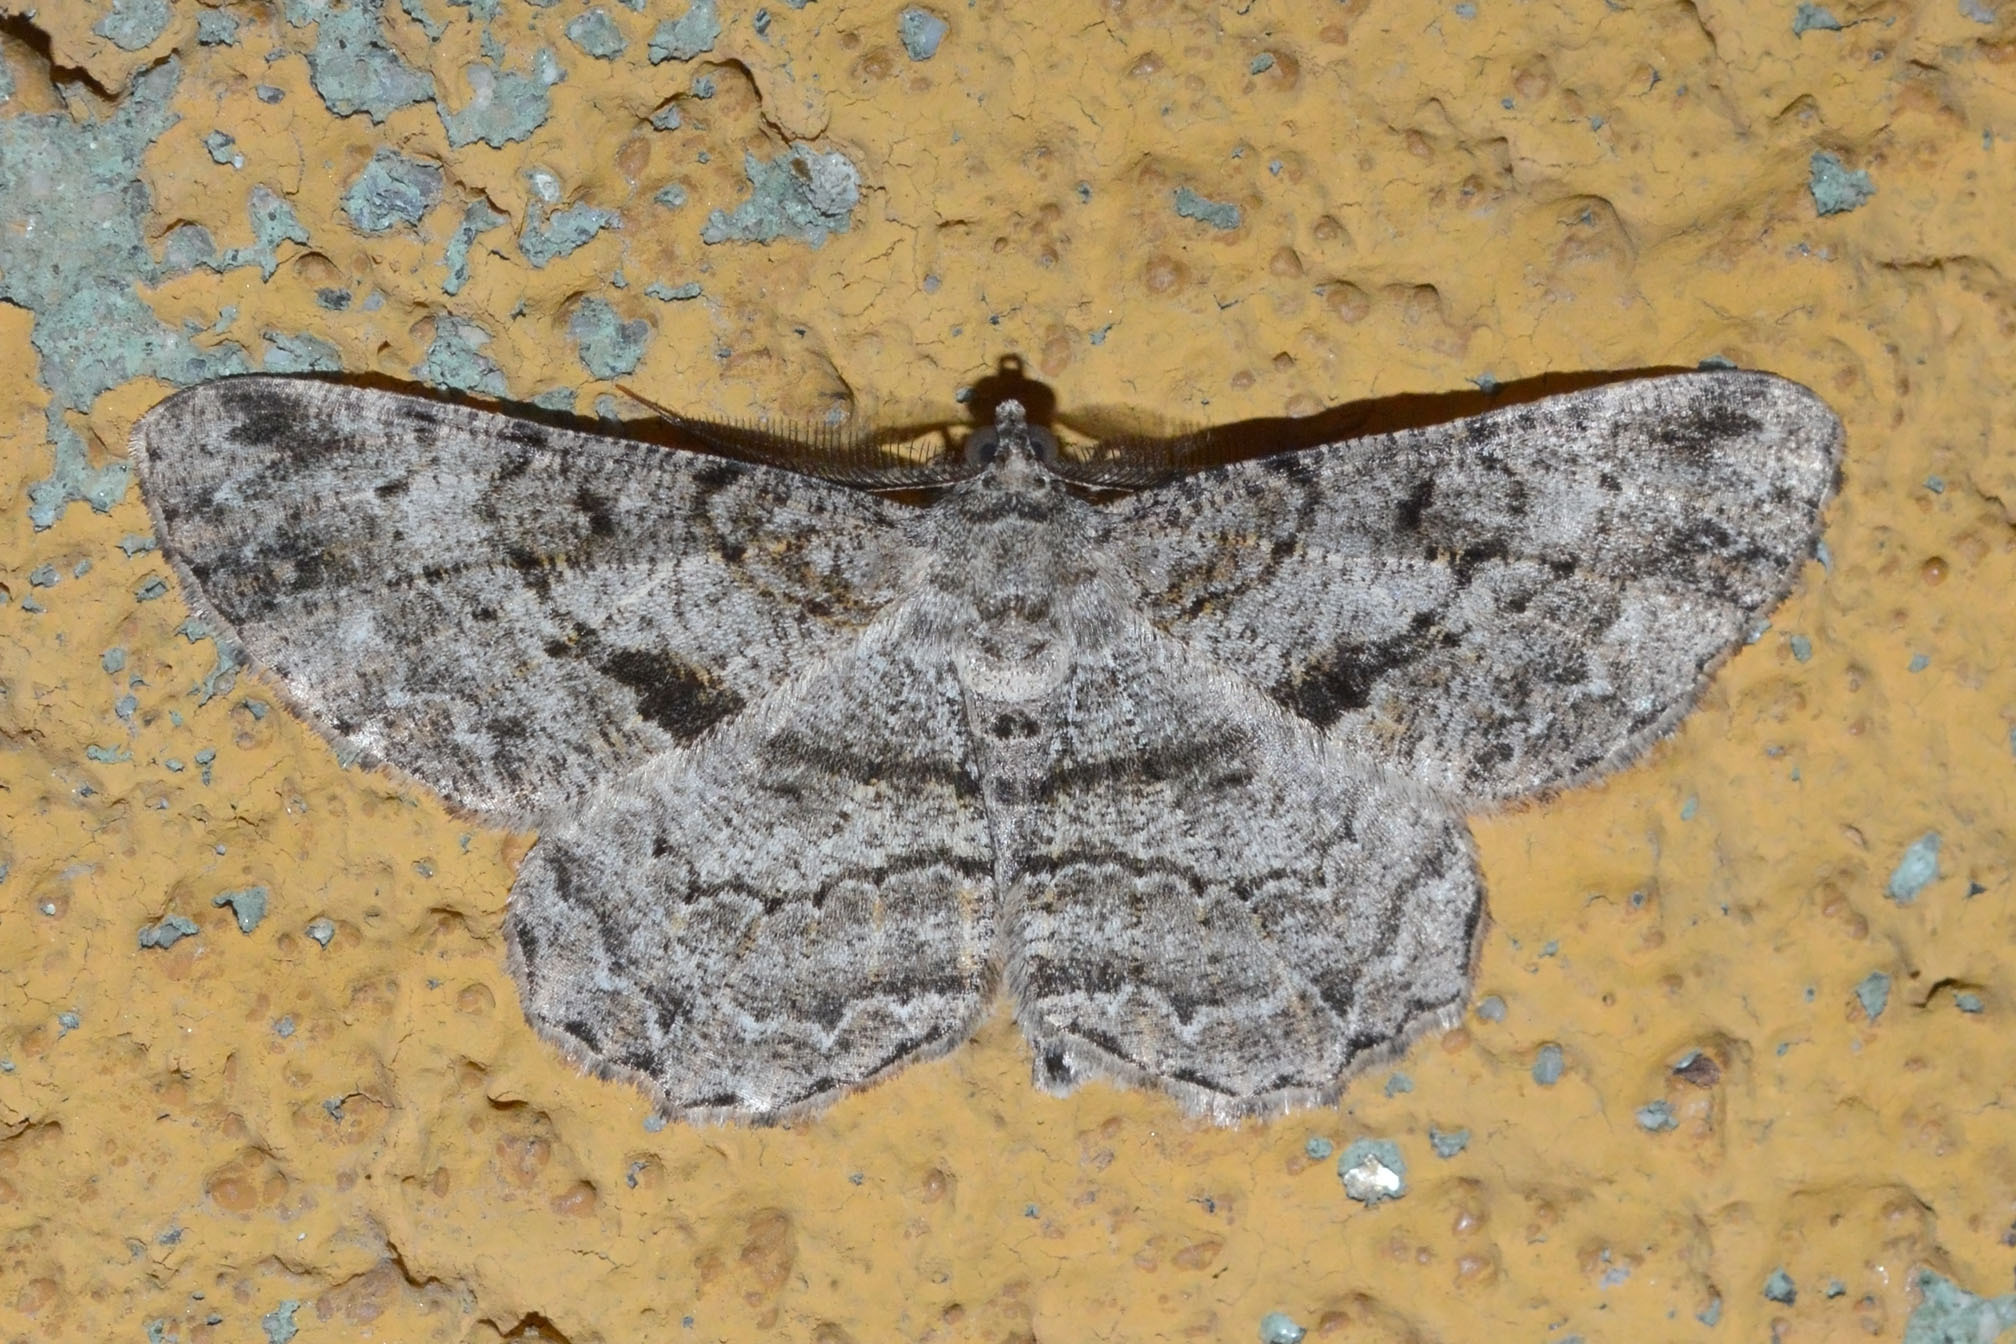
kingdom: Animalia
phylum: Arthropoda
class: Insecta
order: Lepidoptera
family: Geometridae
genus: Peribatodes
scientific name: Peribatodes rhomboidaria
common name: Willow beauty
